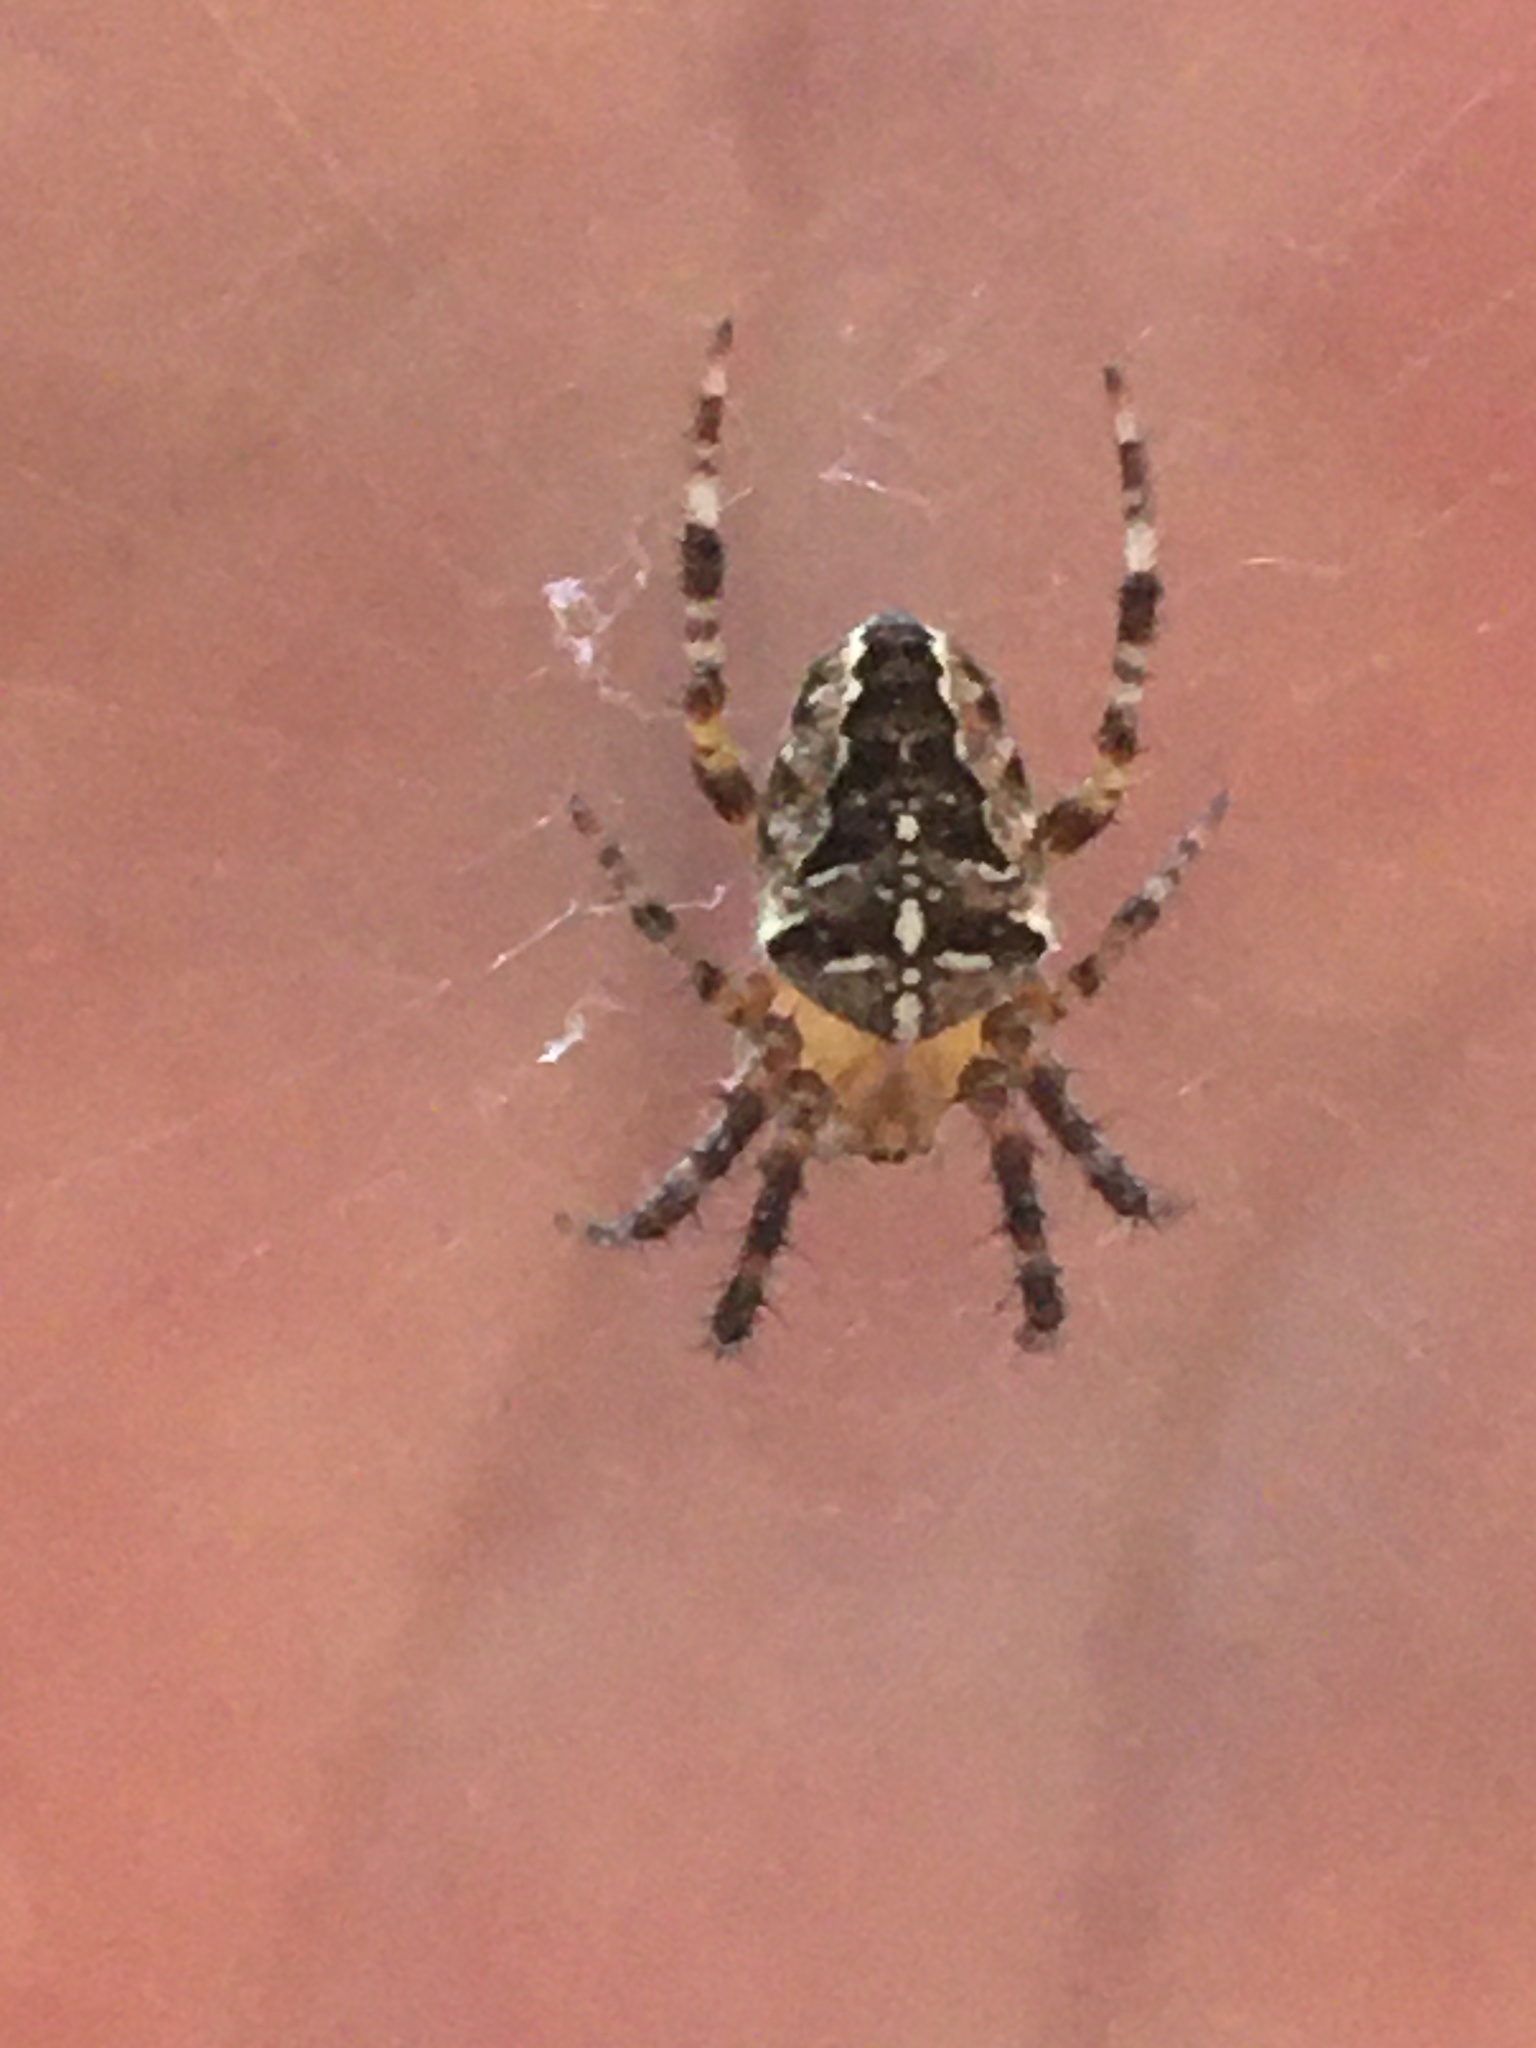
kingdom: Animalia
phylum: Arthropoda
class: Arachnida
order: Araneae
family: Araneidae
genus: Araneus
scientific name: Araneus diadematus
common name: Cross orbweaver
